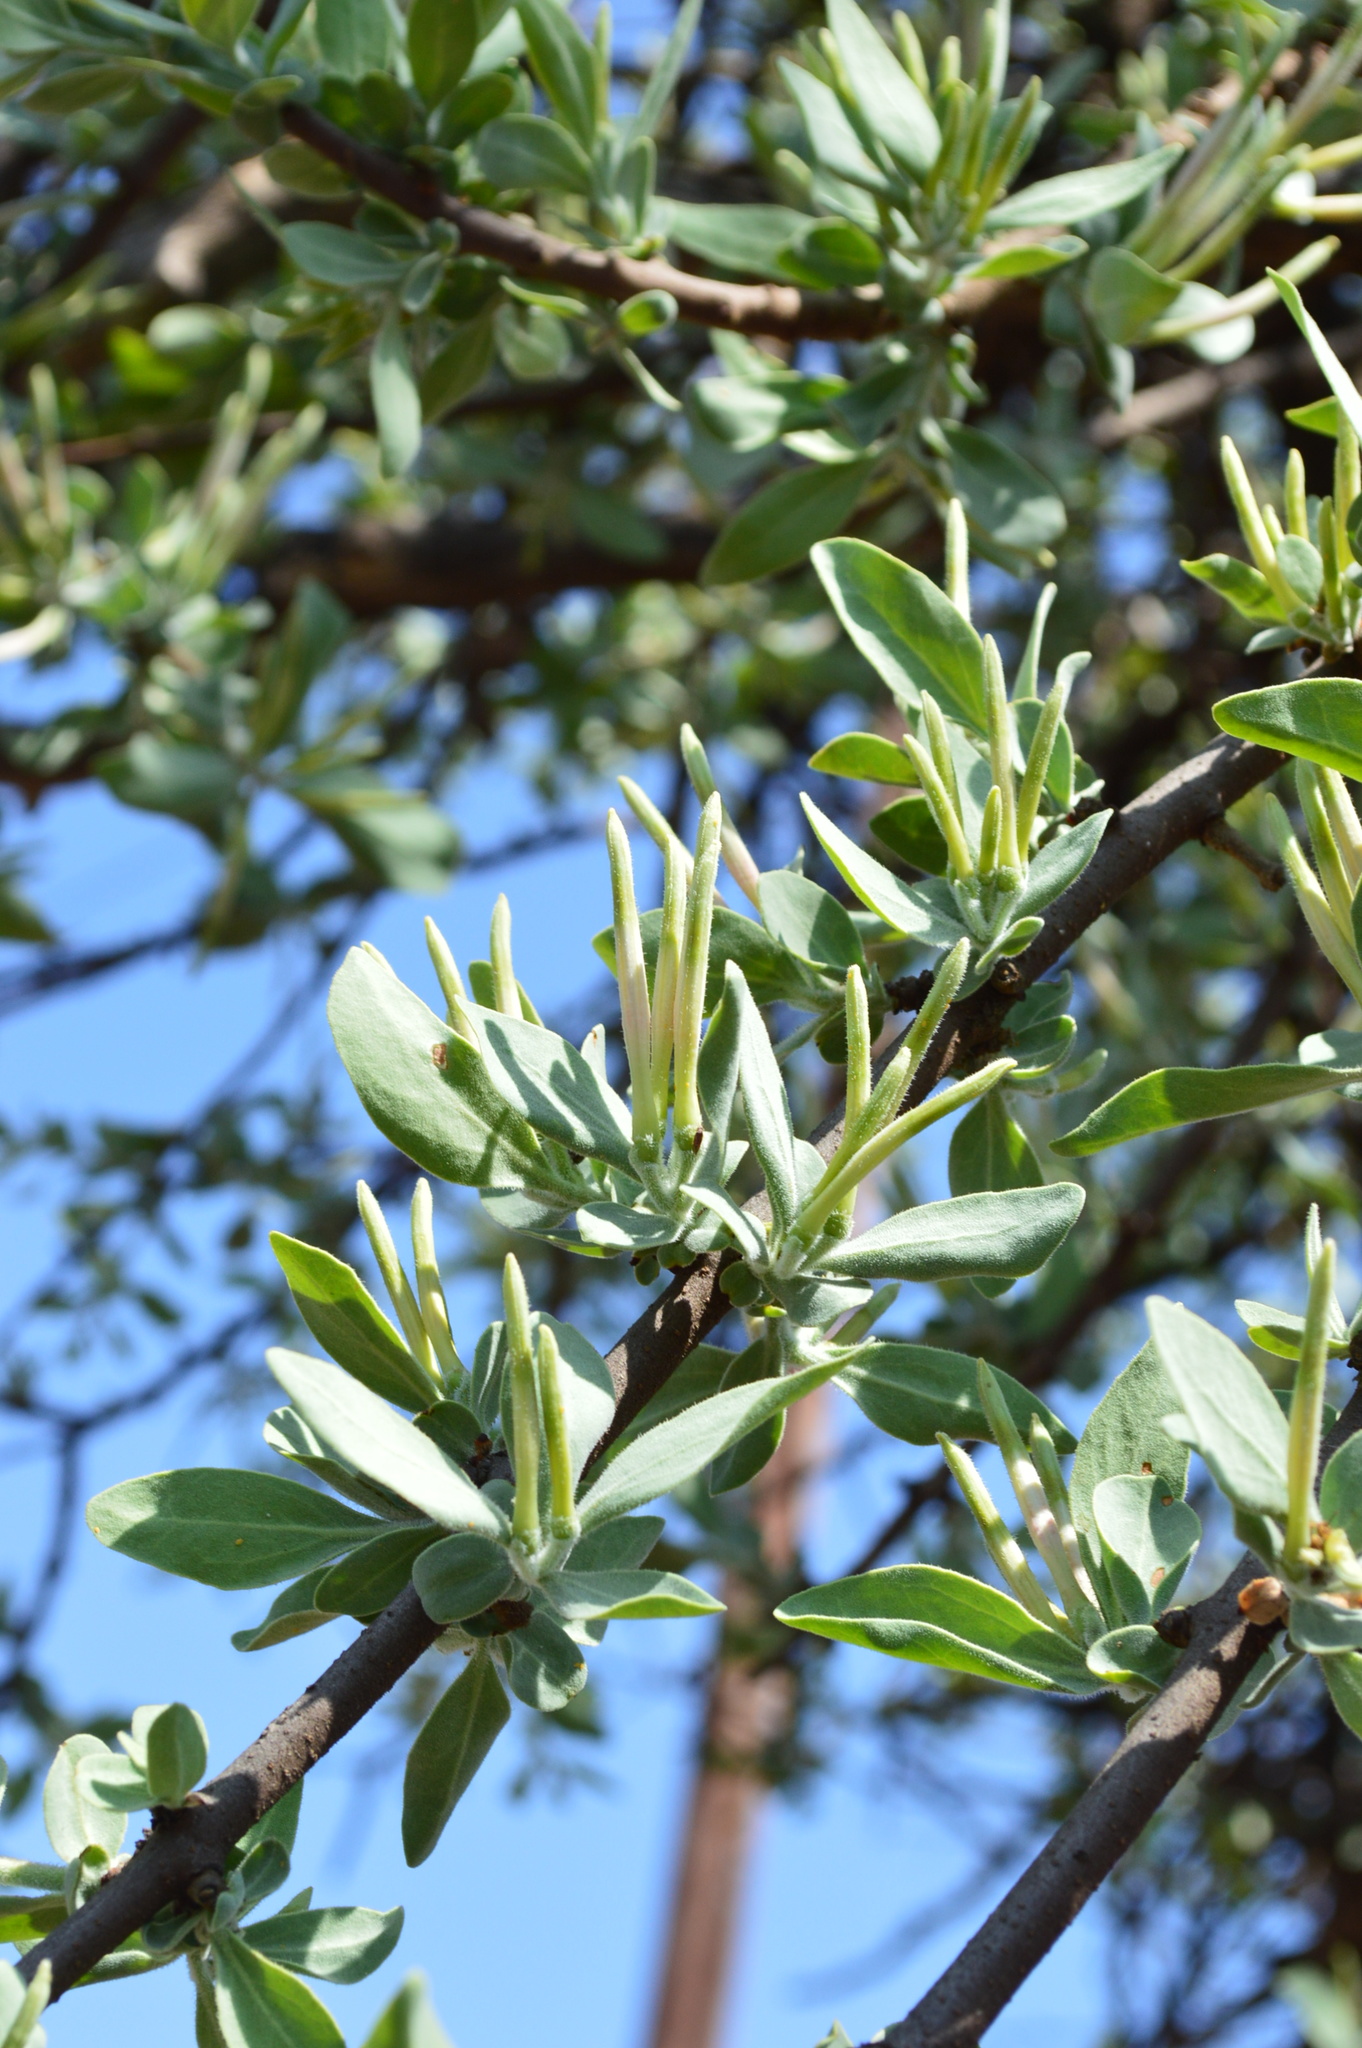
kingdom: Plantae
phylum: Tracheophyta
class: Magnoliopsida
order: Santalales
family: Loranthaceae
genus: Agelanthus
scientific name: Agelanthus natalitius
